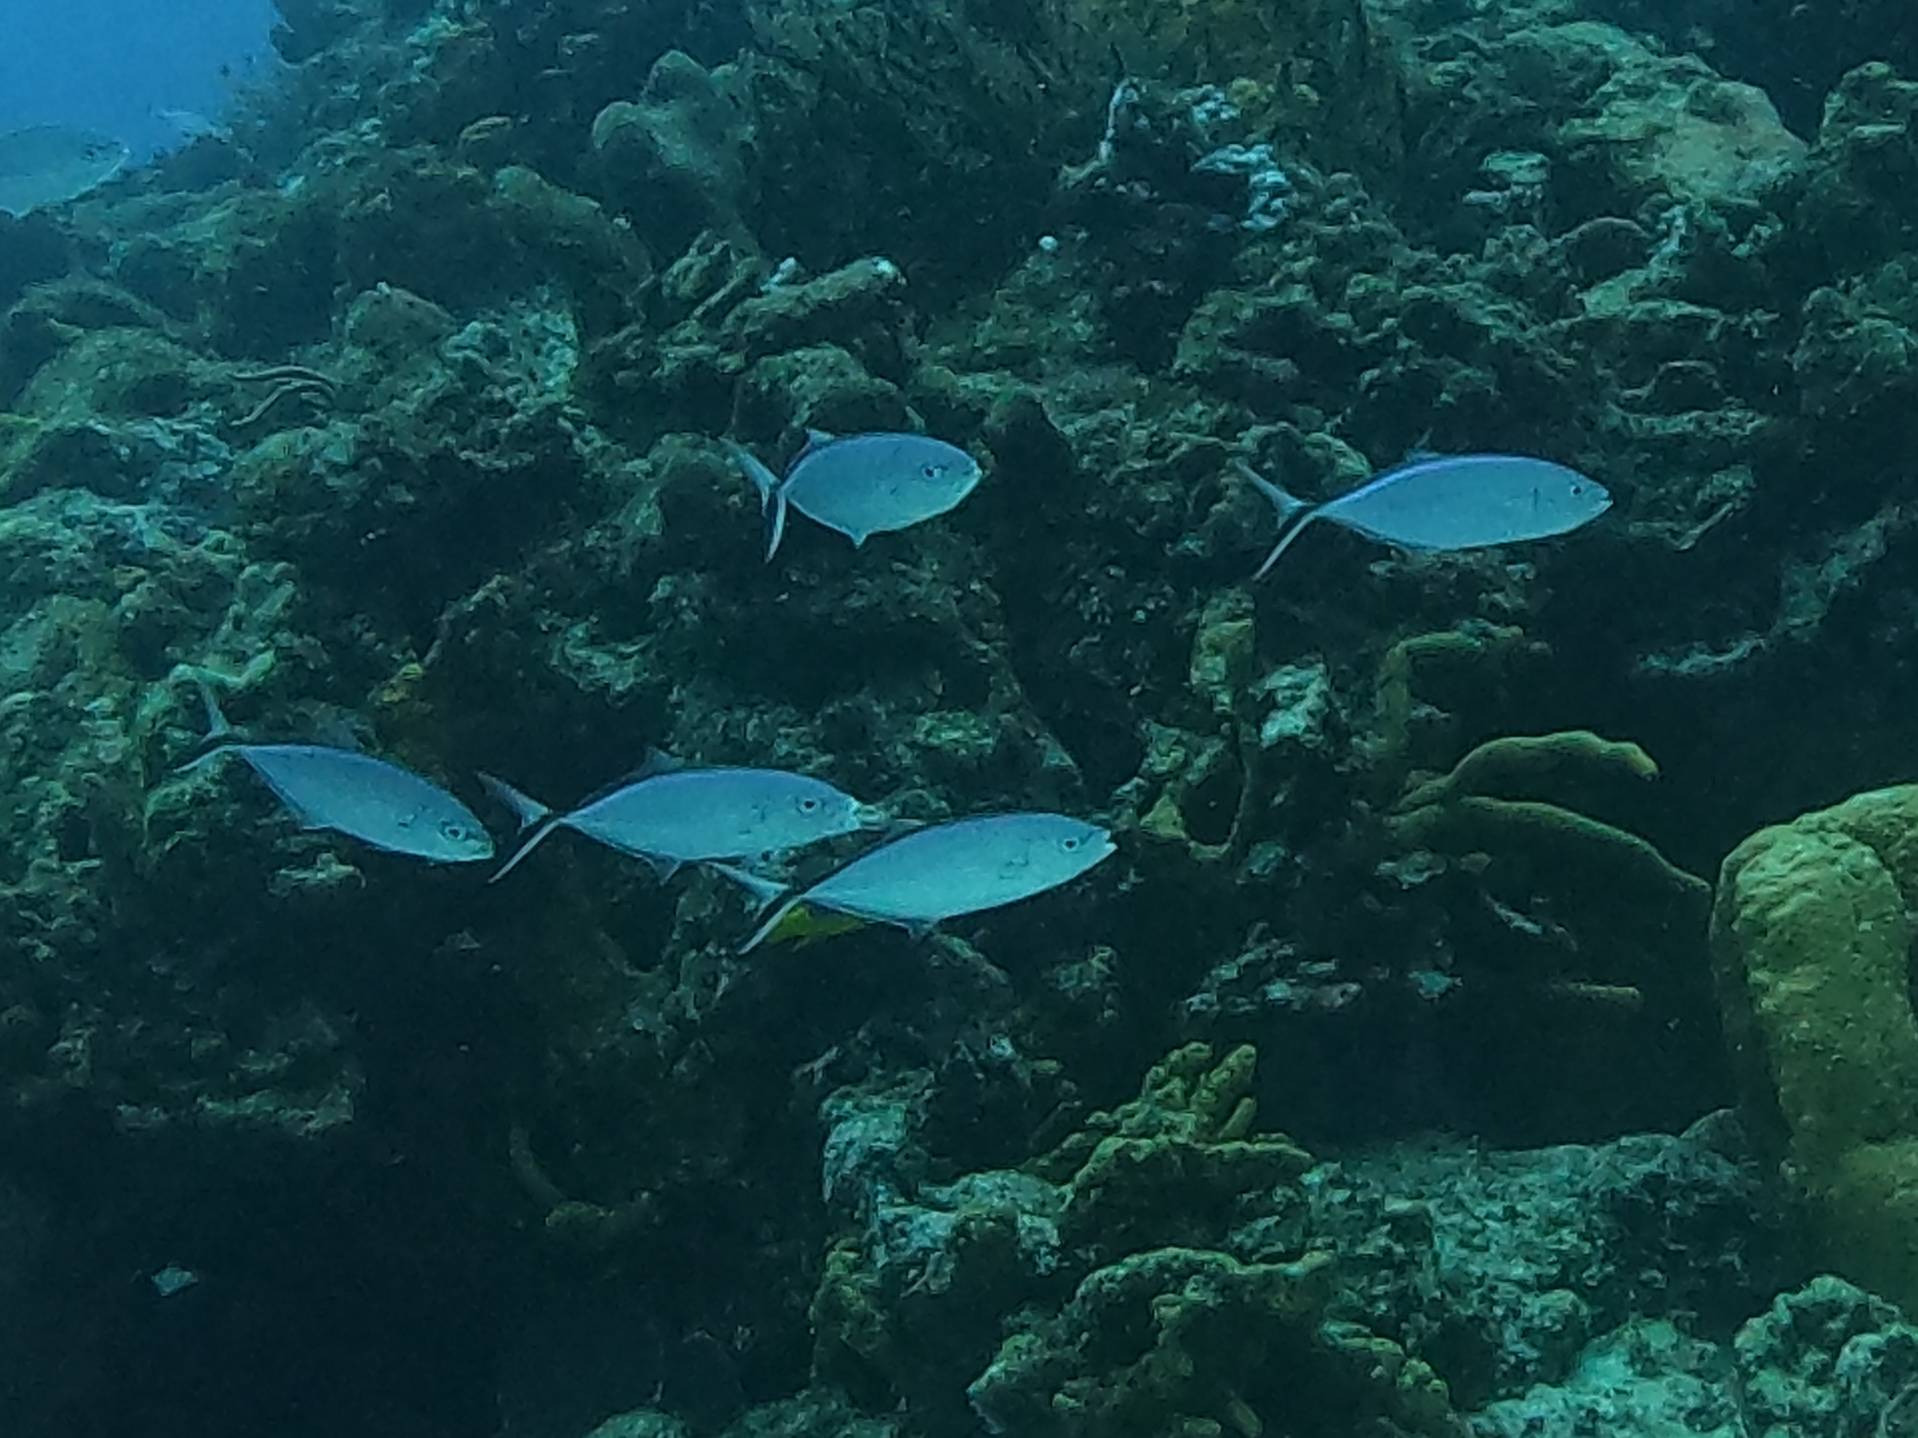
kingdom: Animalia
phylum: Chordata
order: Perciformes
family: Carangidae
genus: Caranx
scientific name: Caranx ruber
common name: Bar jack
